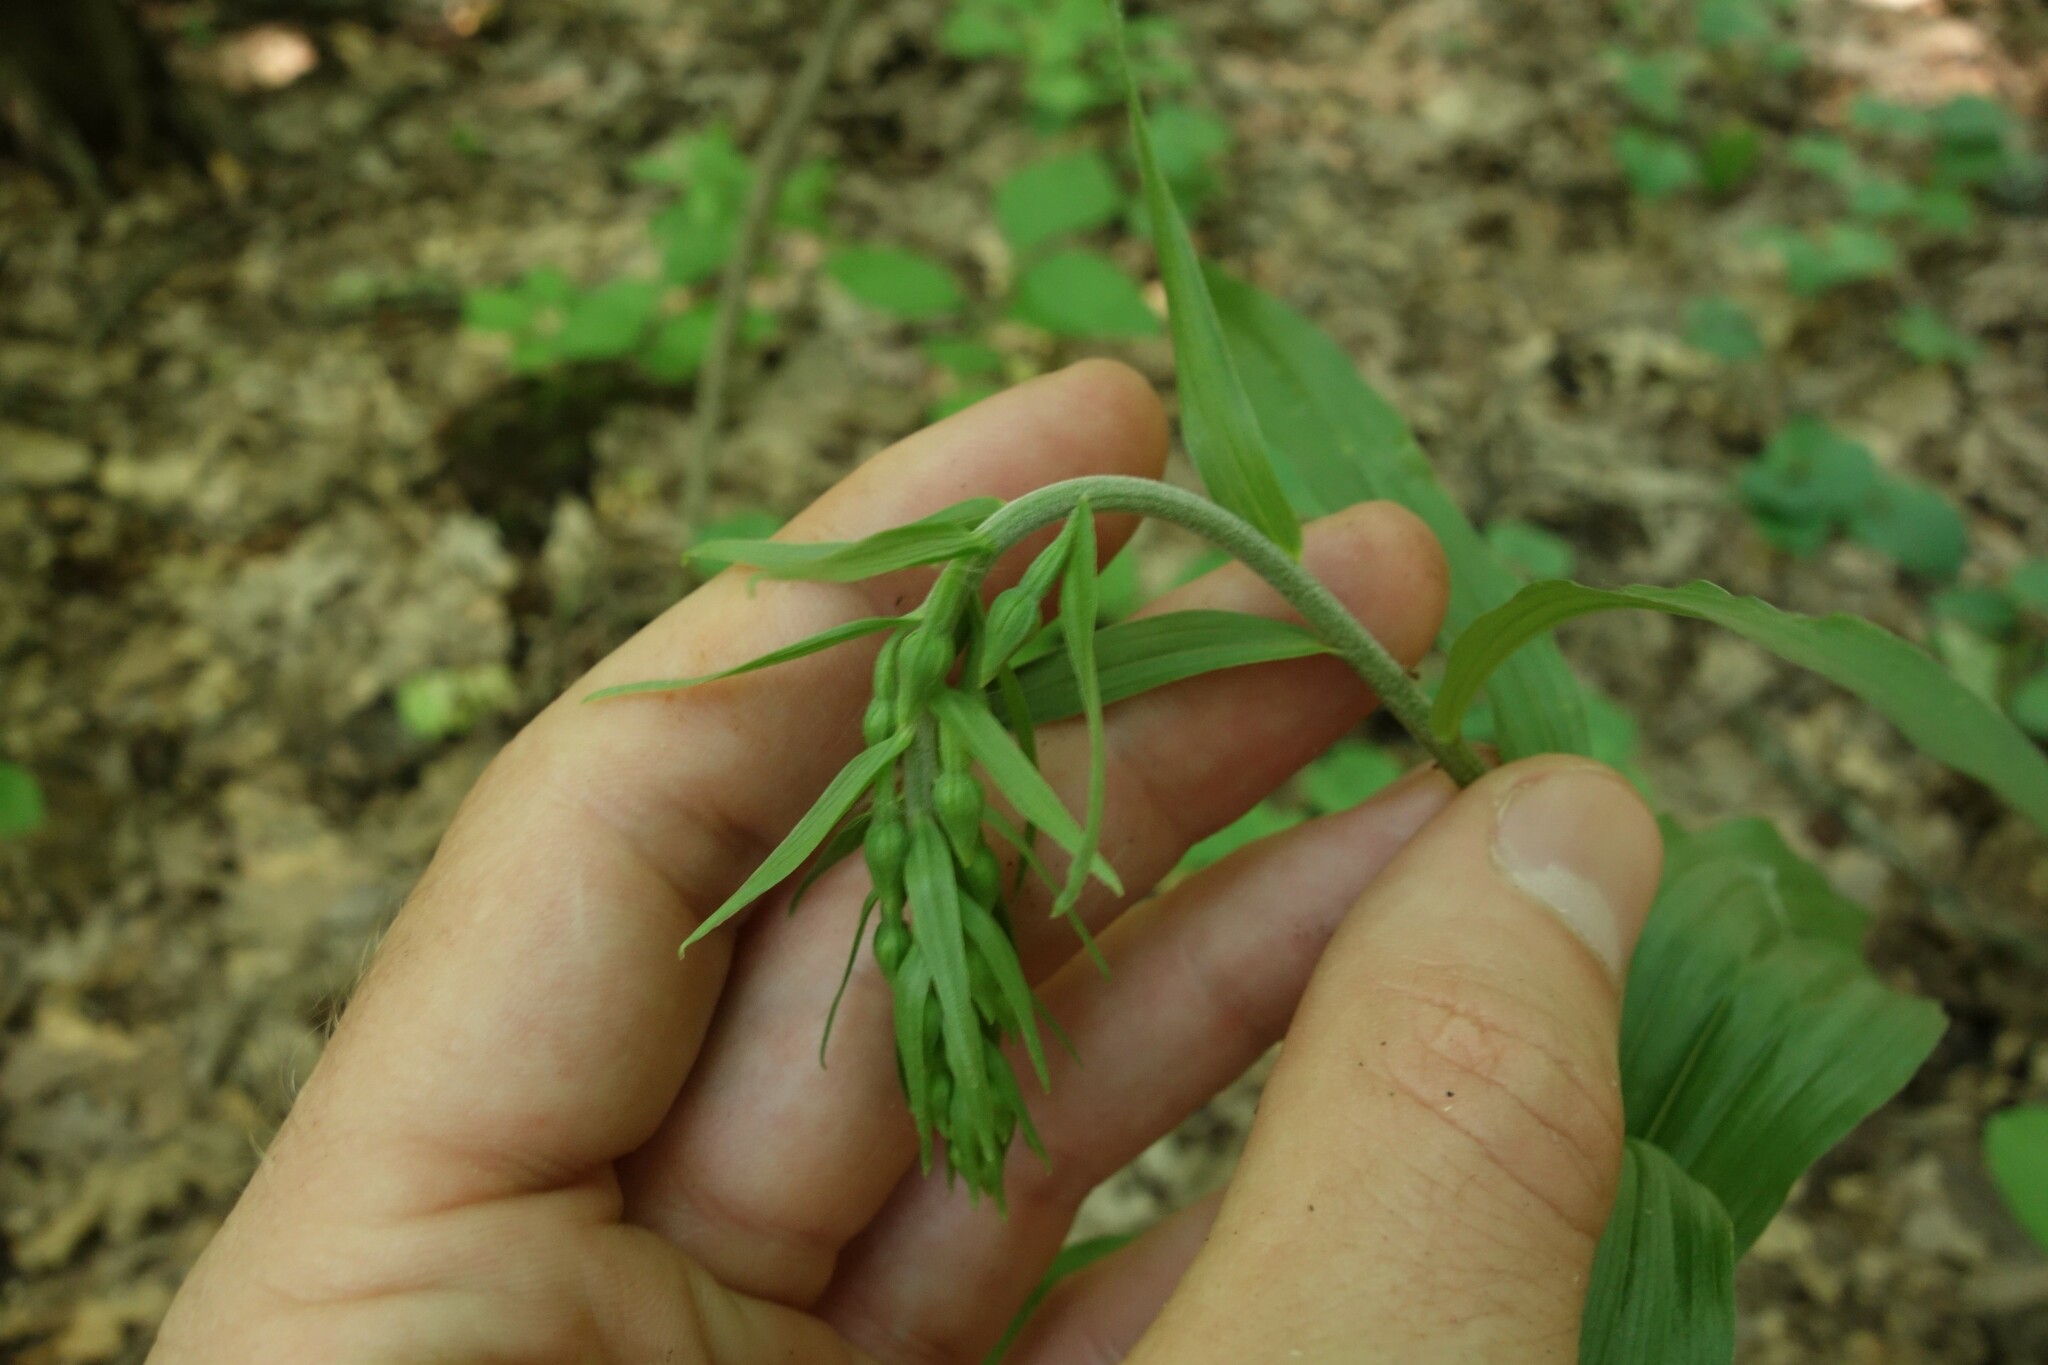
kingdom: Plantae
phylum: Tracheophyta
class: Liliopsida
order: Asparagales
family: Orchidaceae
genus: Epipactis
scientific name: Epipactis helleborine
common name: Broad-leaved helleborine
